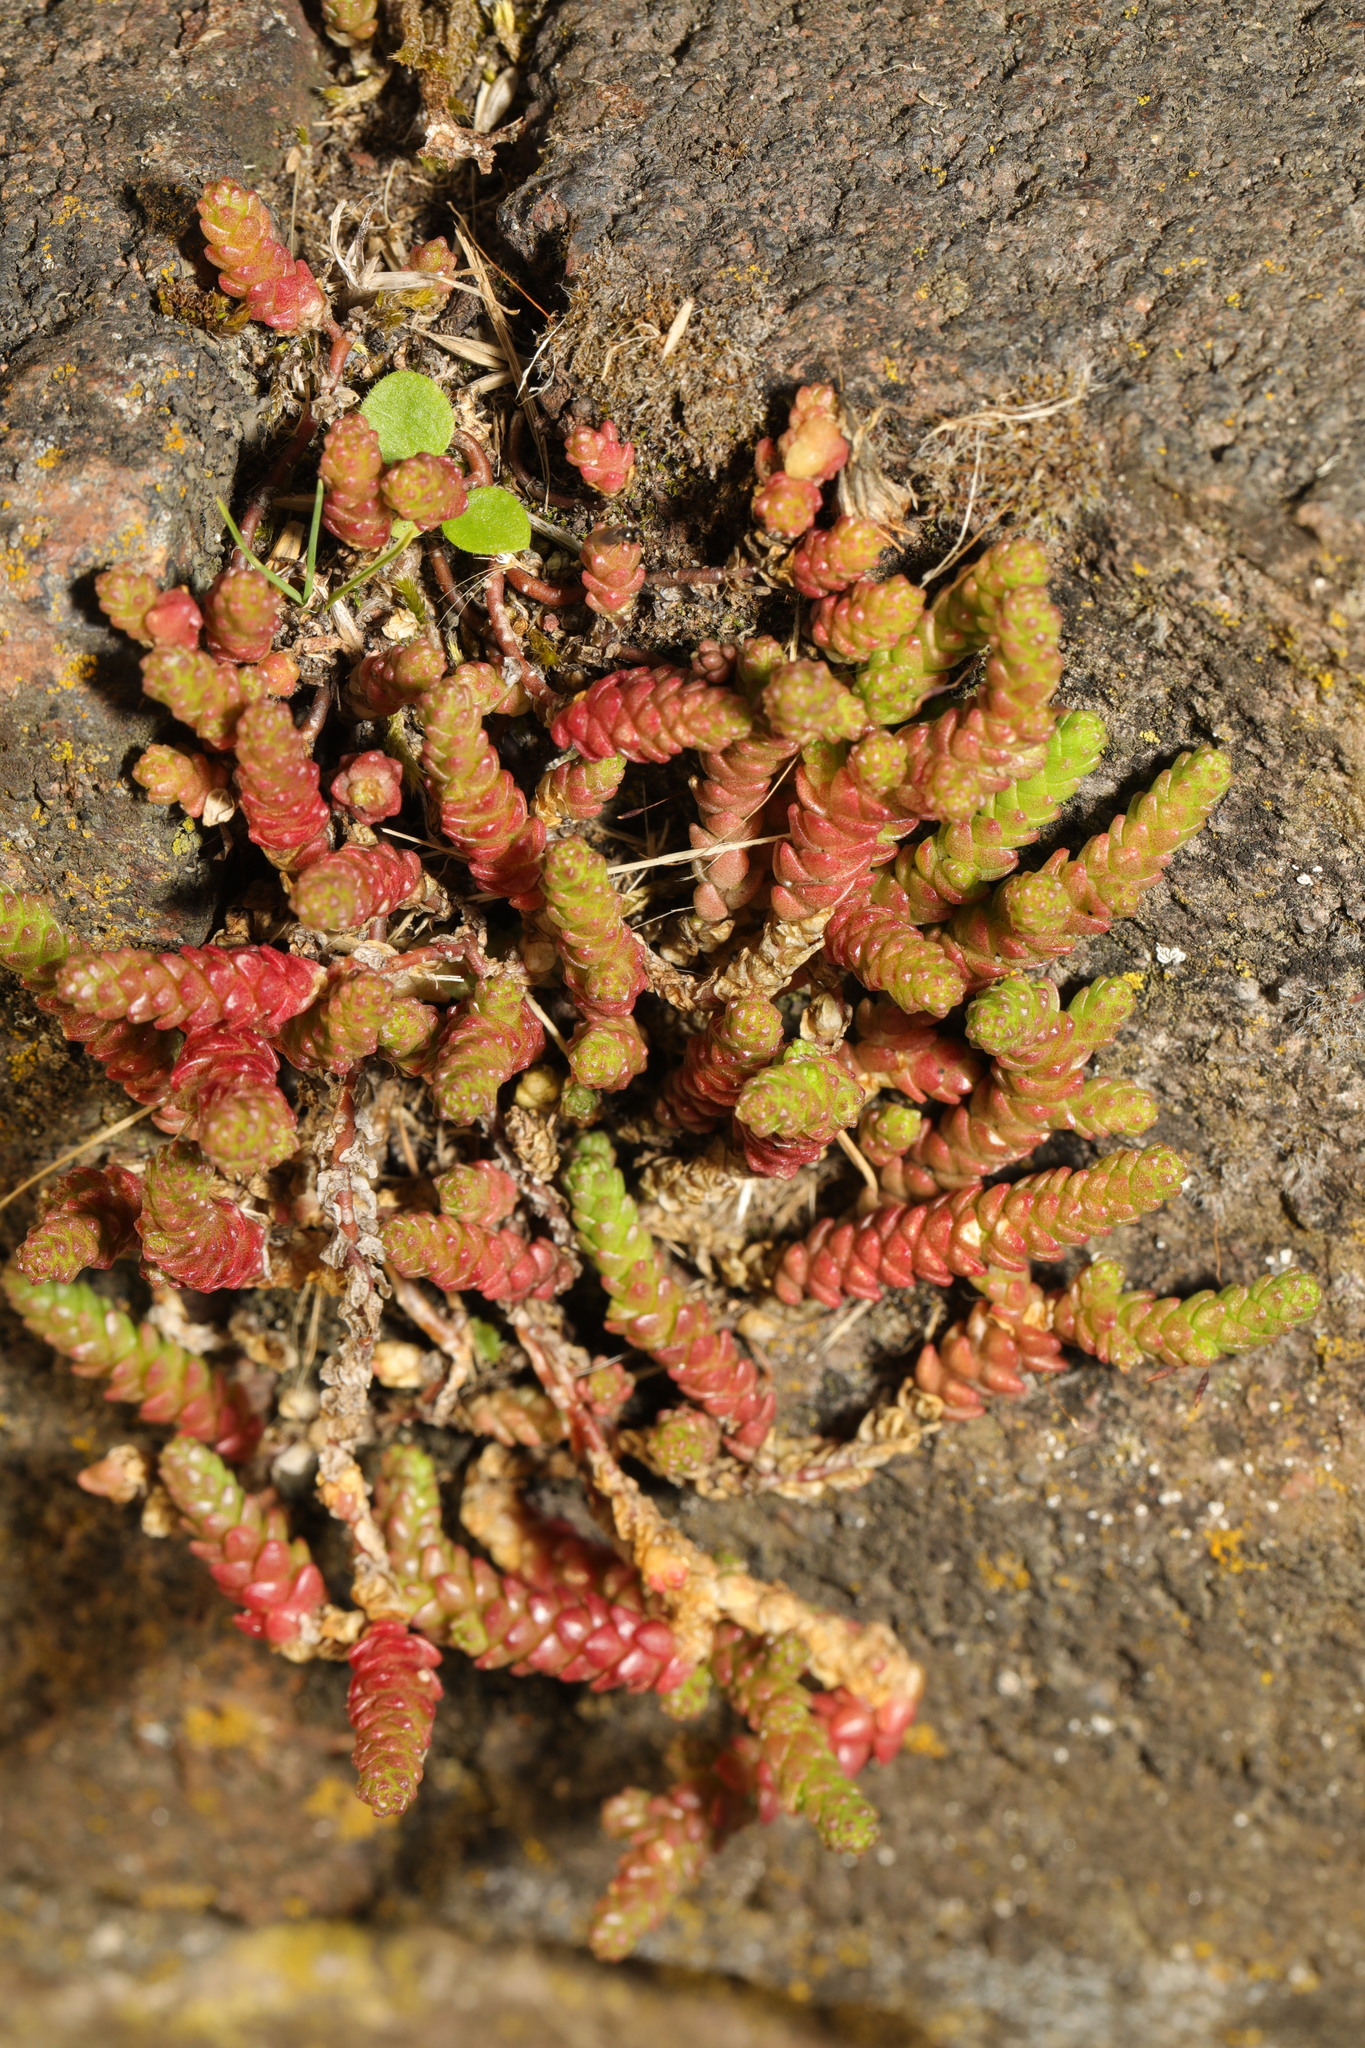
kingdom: Plantae
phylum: Tracheophyta
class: Magnoliopsida
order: Saxifragales
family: Crassulaceae
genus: Sedum
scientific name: Sedum acre
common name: Biting stonecrop
